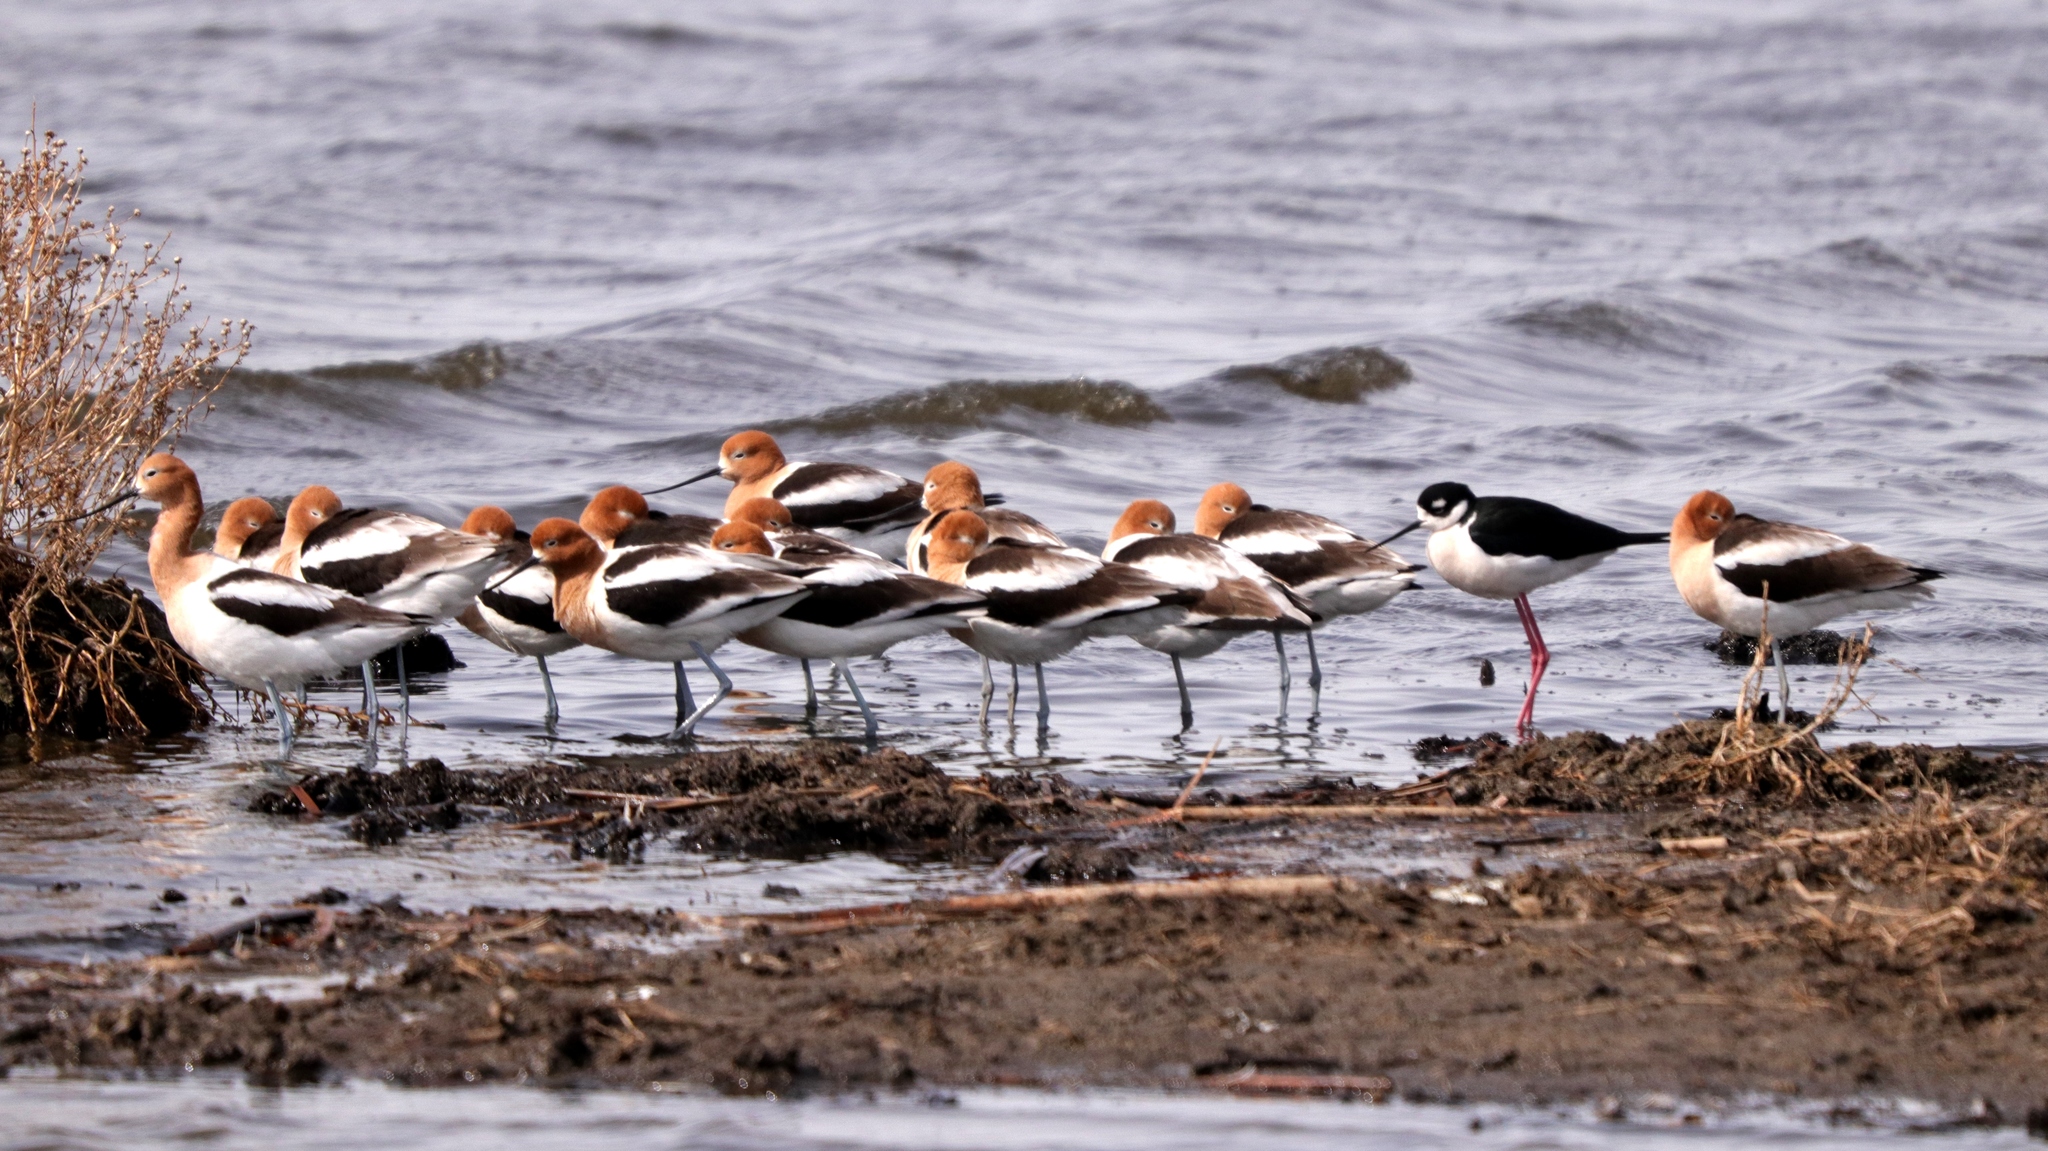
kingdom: Animalia
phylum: Chordata
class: Aves
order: Charadriiformes
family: Recurvirostridae
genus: Recurvirostra
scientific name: Recurvirostra americana
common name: American avocet
